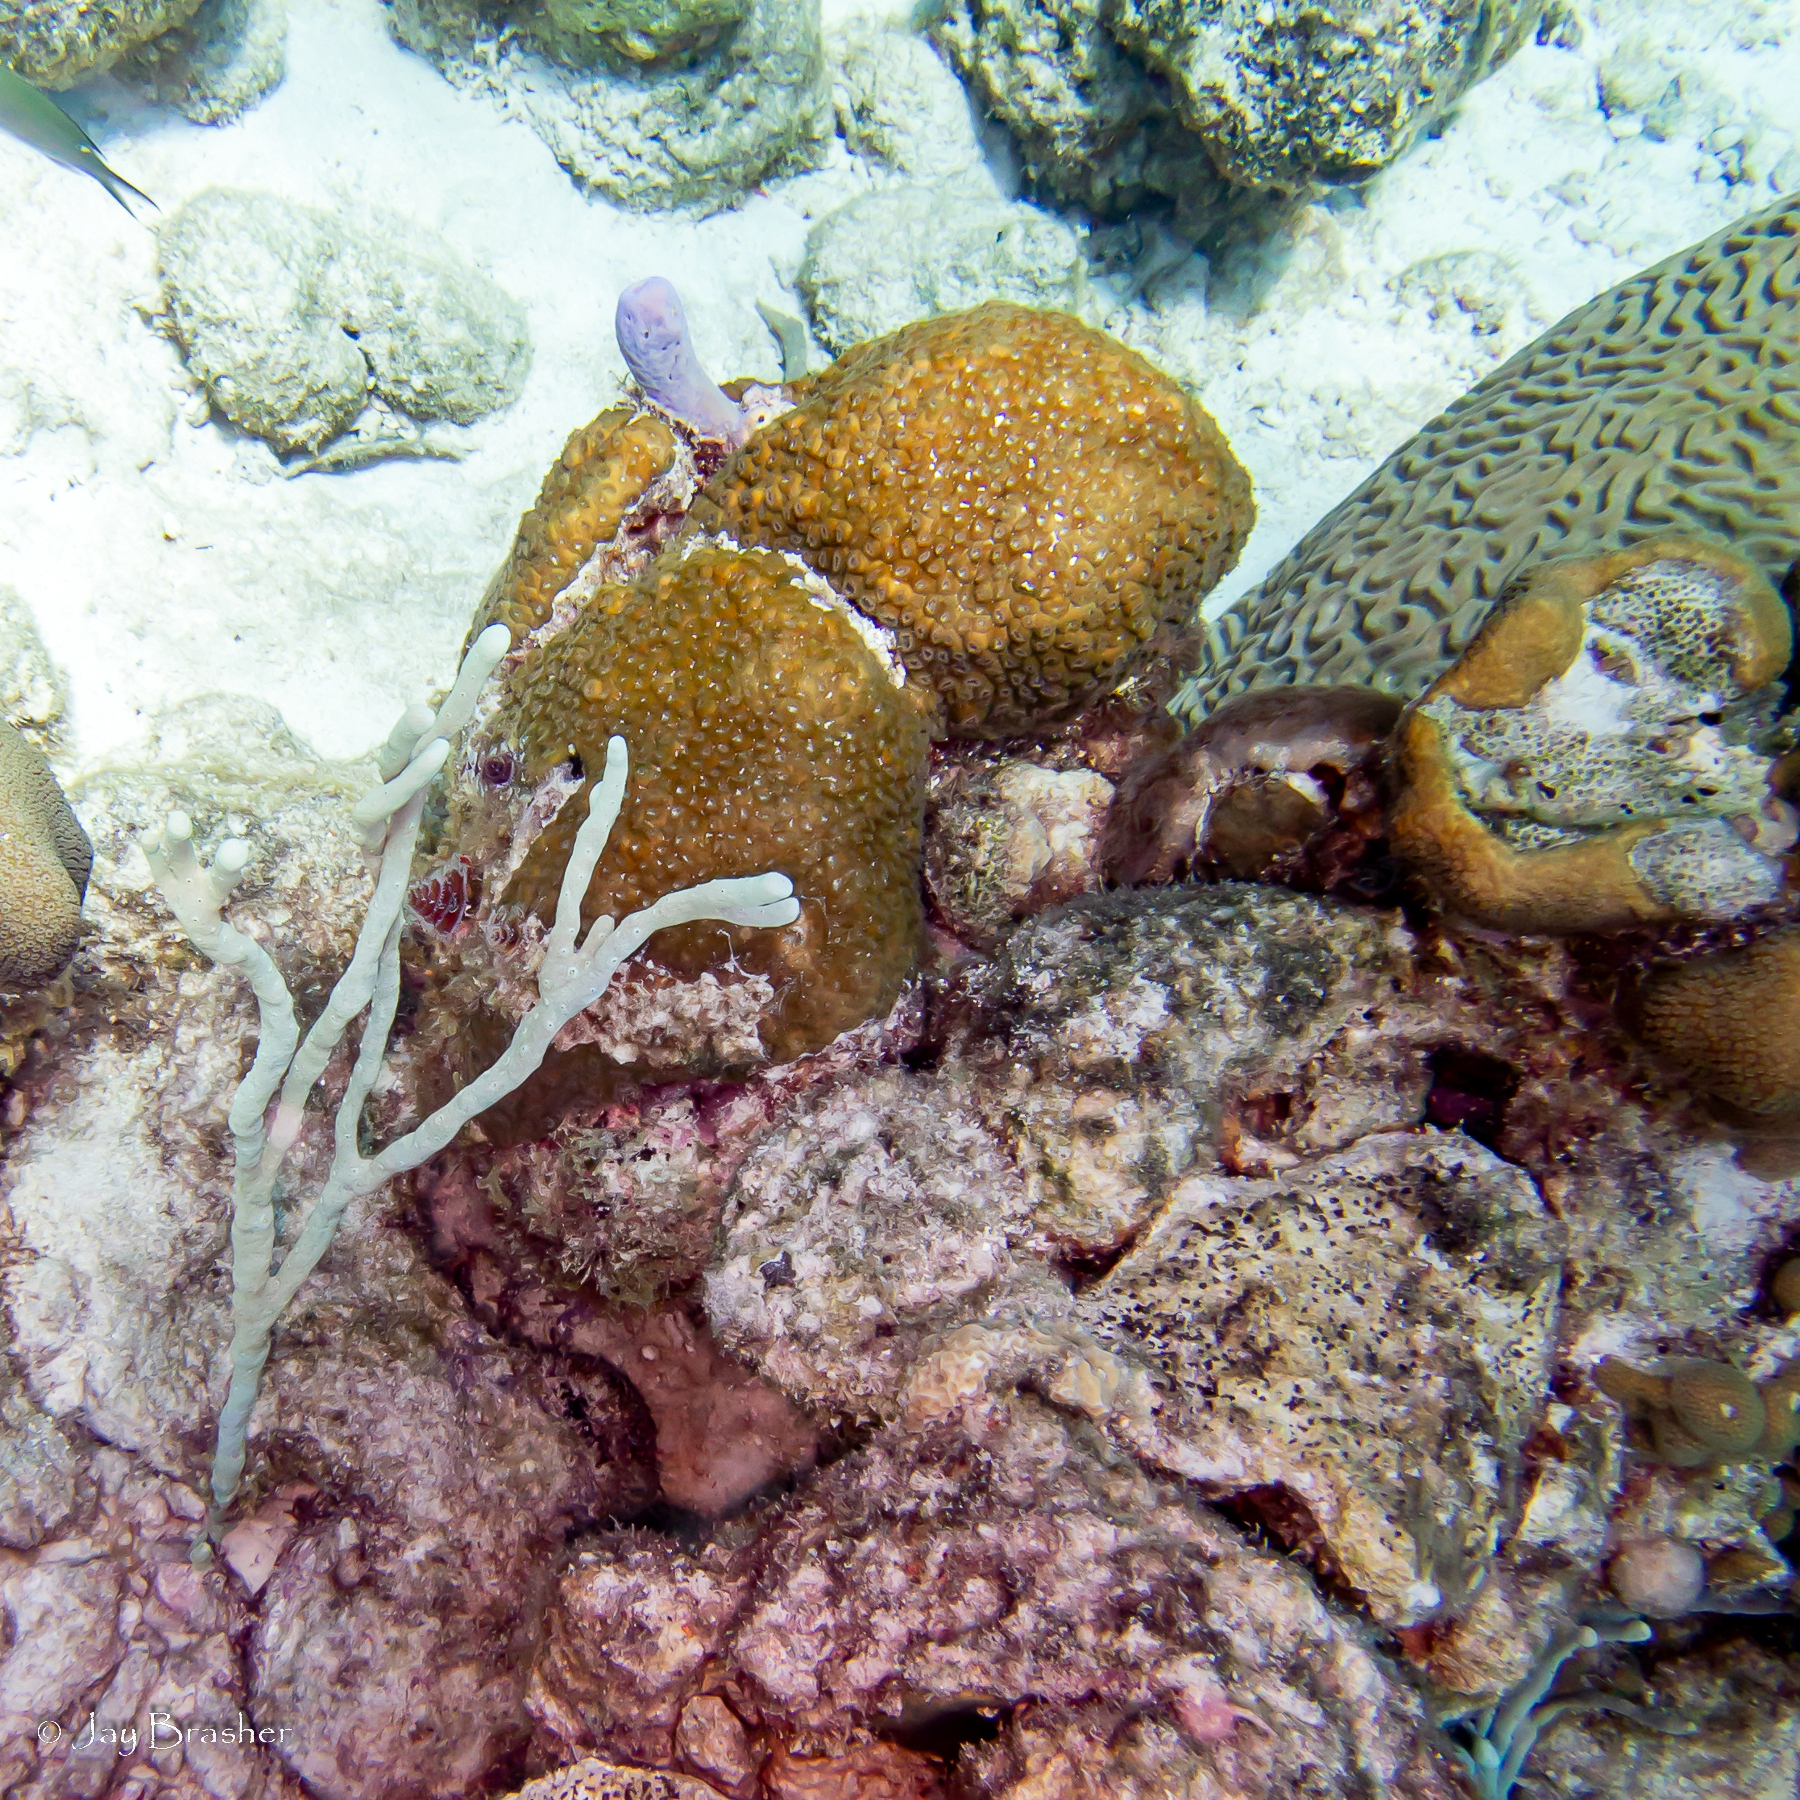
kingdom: Animalia
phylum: Porifera
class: Demospongiae
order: Verongiida
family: Aplysinidae
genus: Aplysina
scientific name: Aplysina cauliformis
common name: Branching candle sponge
